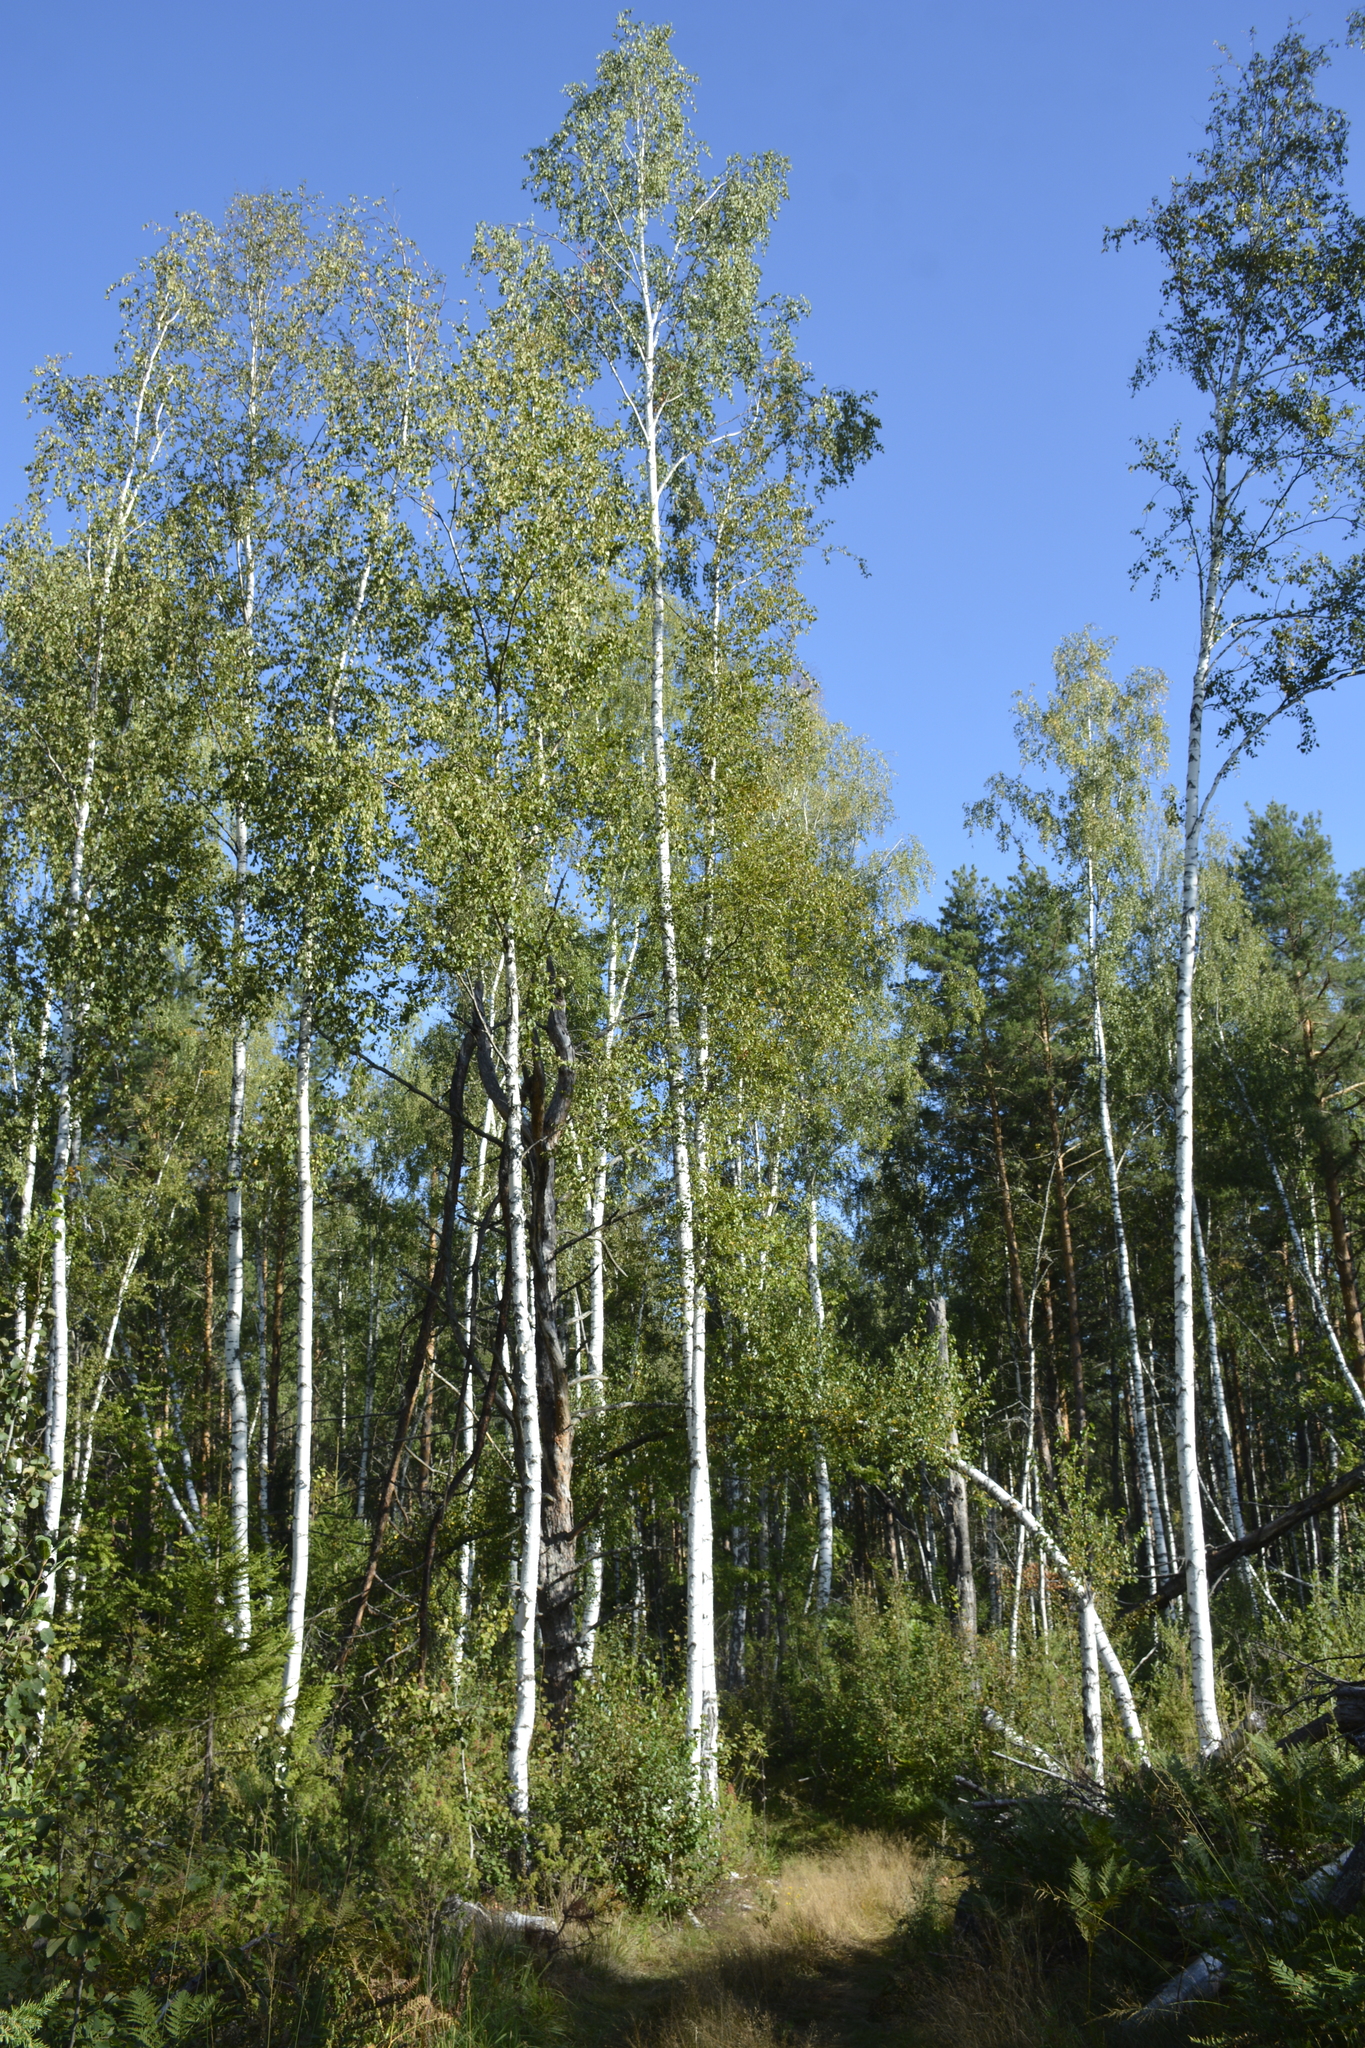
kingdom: Plantae
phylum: Tracheophyta
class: Magnoliopsida
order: Fagales
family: Betulaceae
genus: Betula
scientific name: Betula pubescens
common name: Downy birch
